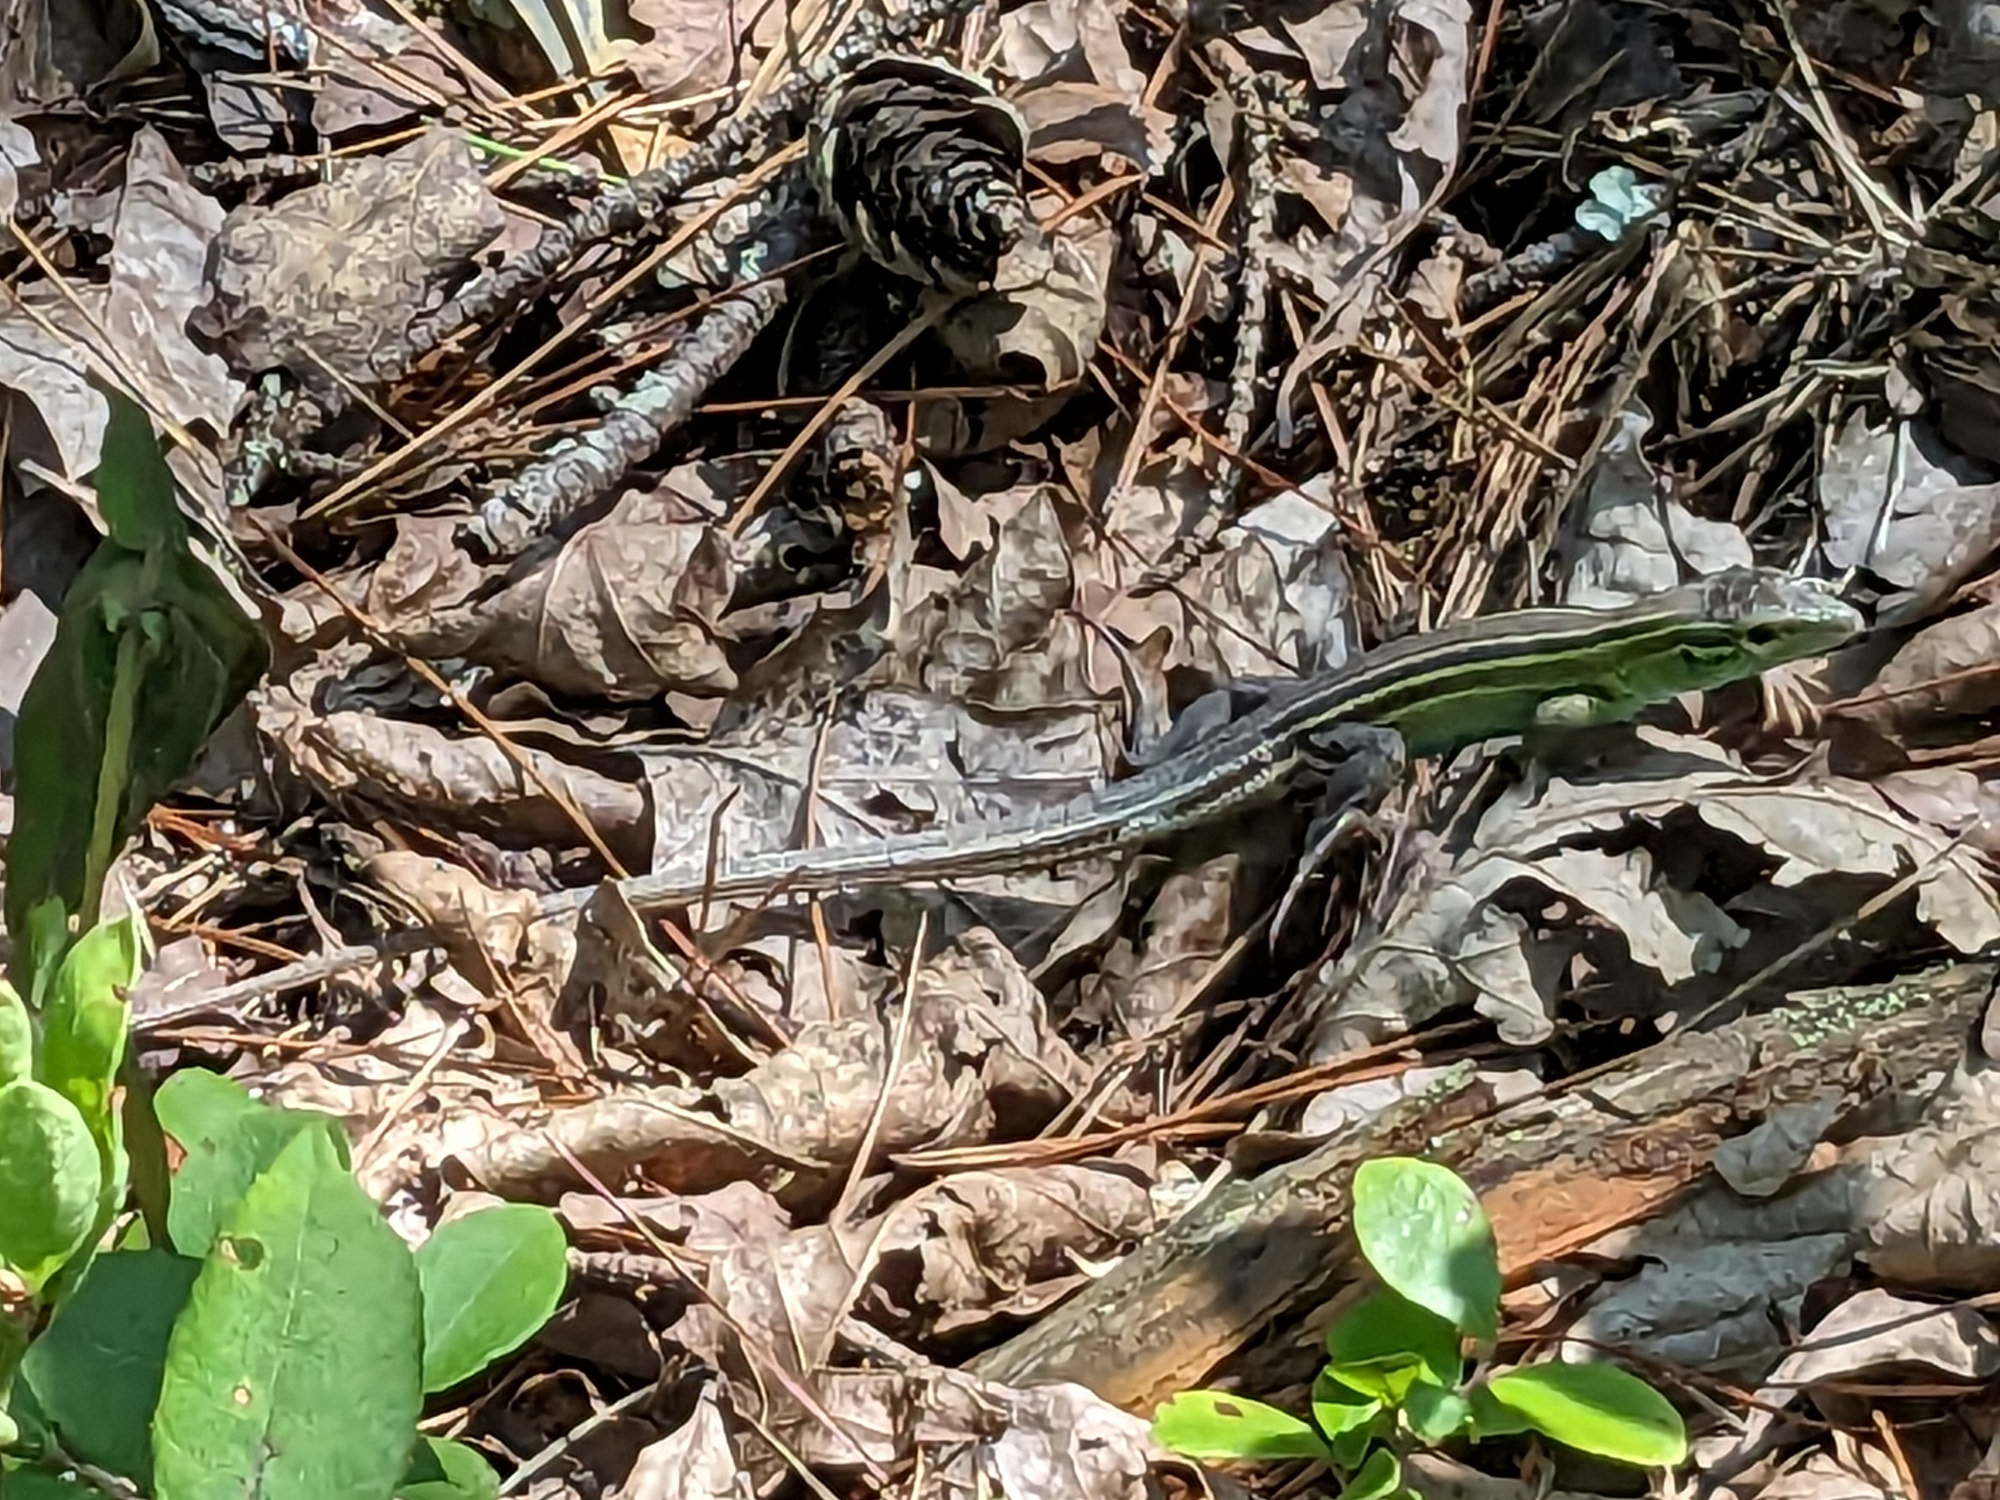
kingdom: Animalia
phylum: Chordata
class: Squamata
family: Teiidae
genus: Aspidoscelis
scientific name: Aspidoscelis sexlineatus
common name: Six-lined racerunner
